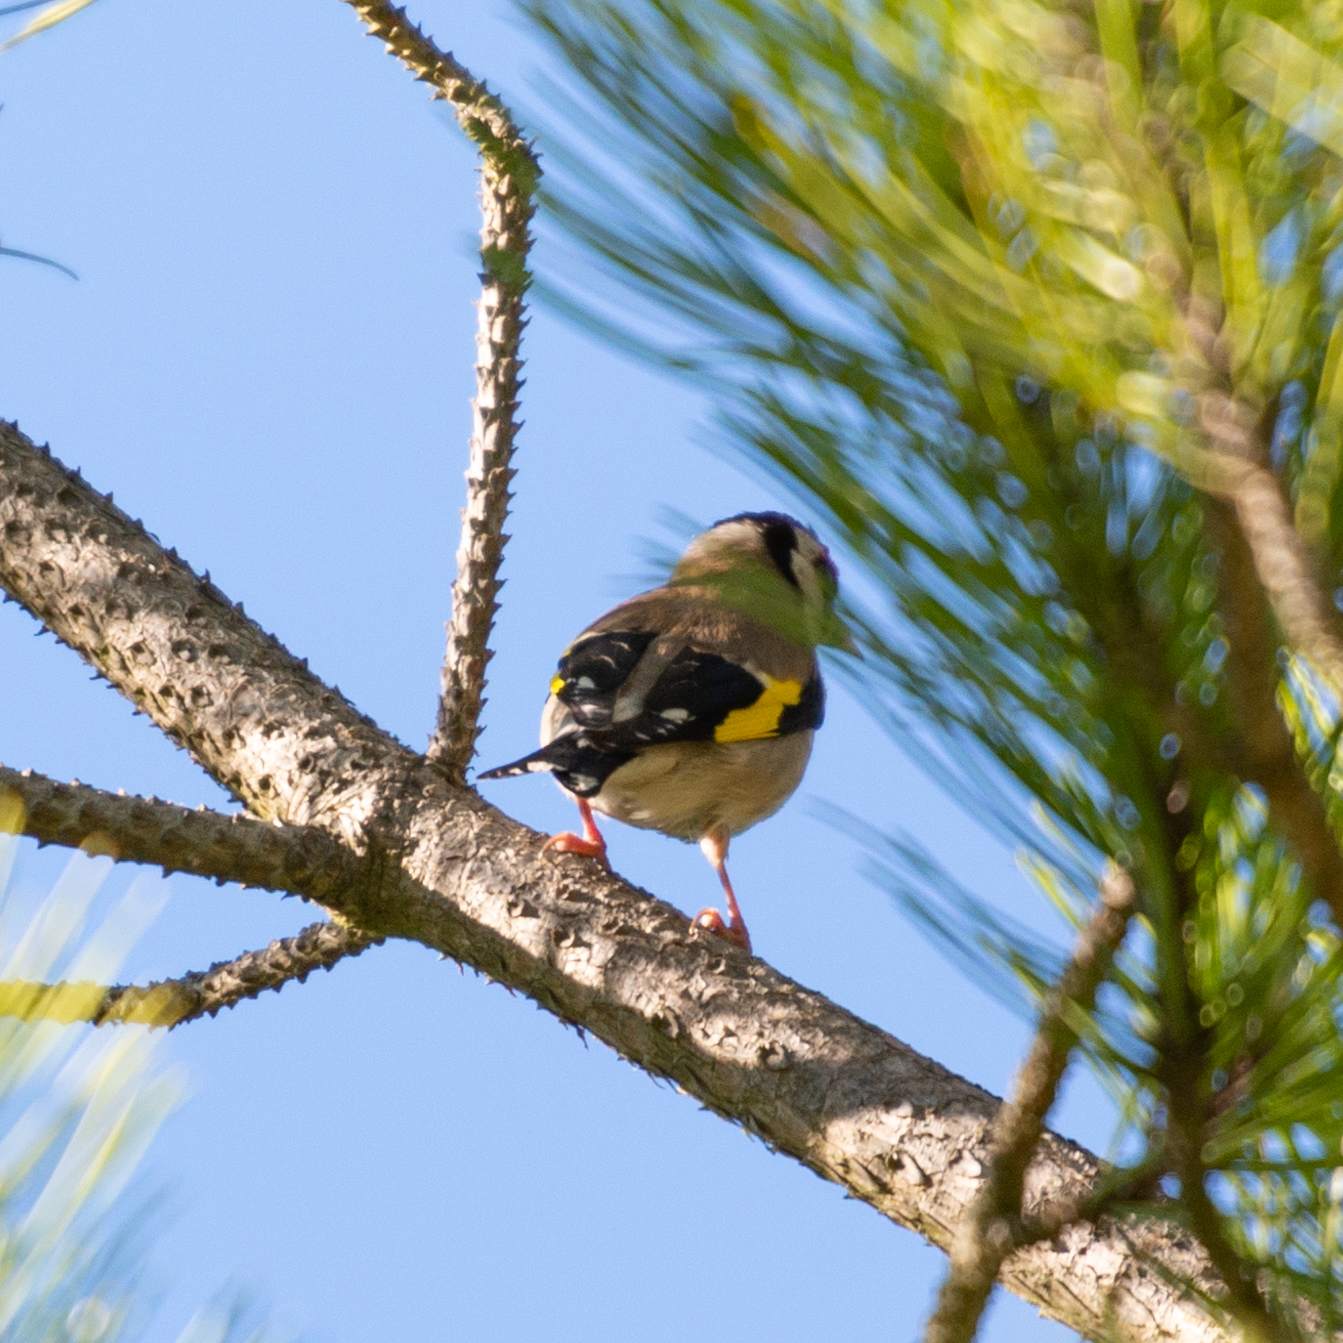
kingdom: Animalia
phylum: Chordata
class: Aves
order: Passeriformes
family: Fringillidae
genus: Carduelis
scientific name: Carduelis carduelis
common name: European goldfinch
